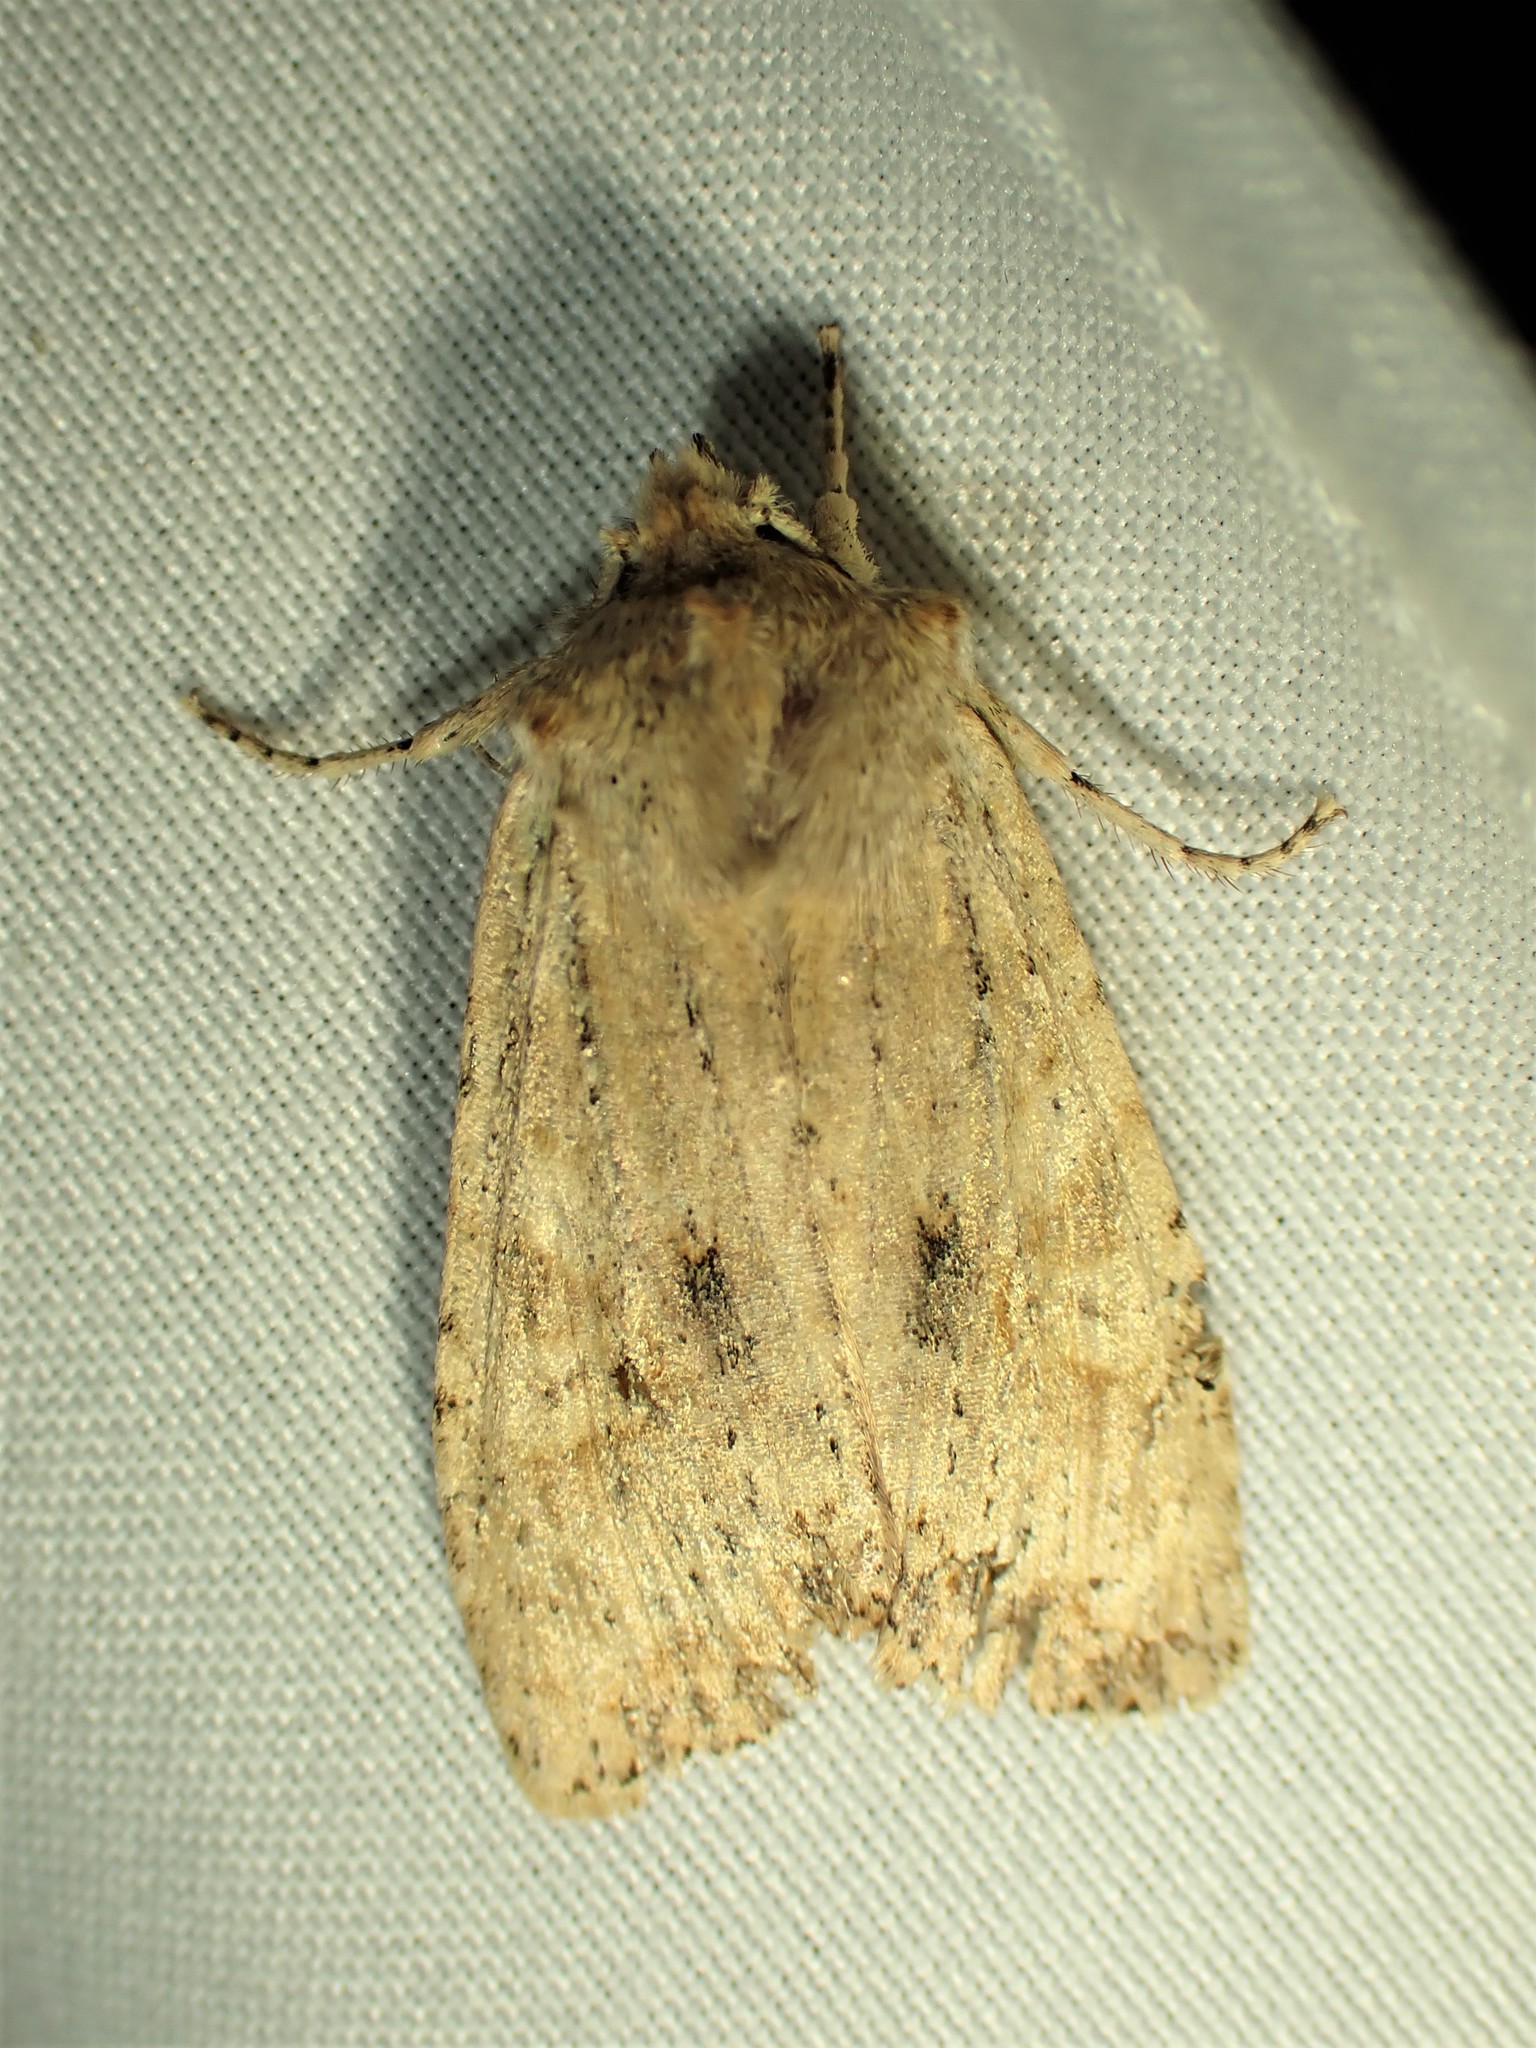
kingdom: Animalia
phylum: Arthropoda
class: Insecta
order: Lepidoptera
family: Noctuidae
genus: Lithophane
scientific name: Lithophane innominata
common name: Nameless pinion moth
